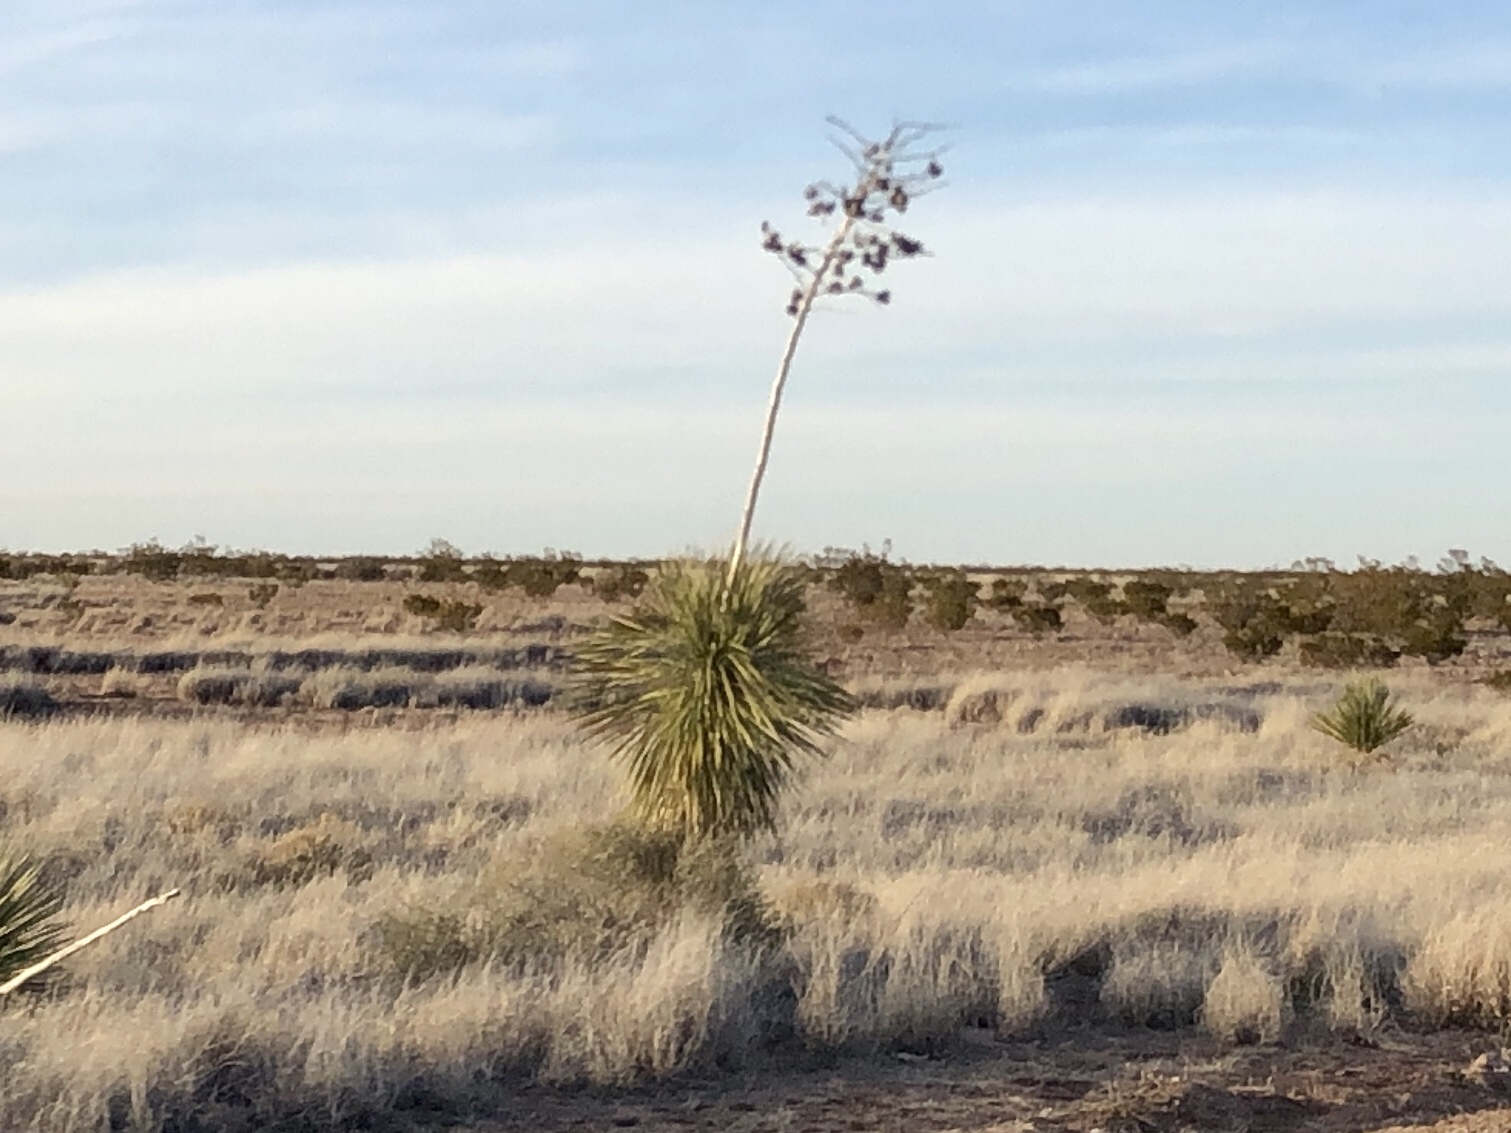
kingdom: Plantae
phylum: Tracheophyta
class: Liliopsida
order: Asparagales
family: Asparagaceae
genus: Yucca
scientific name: Yucca elata
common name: Palmella
